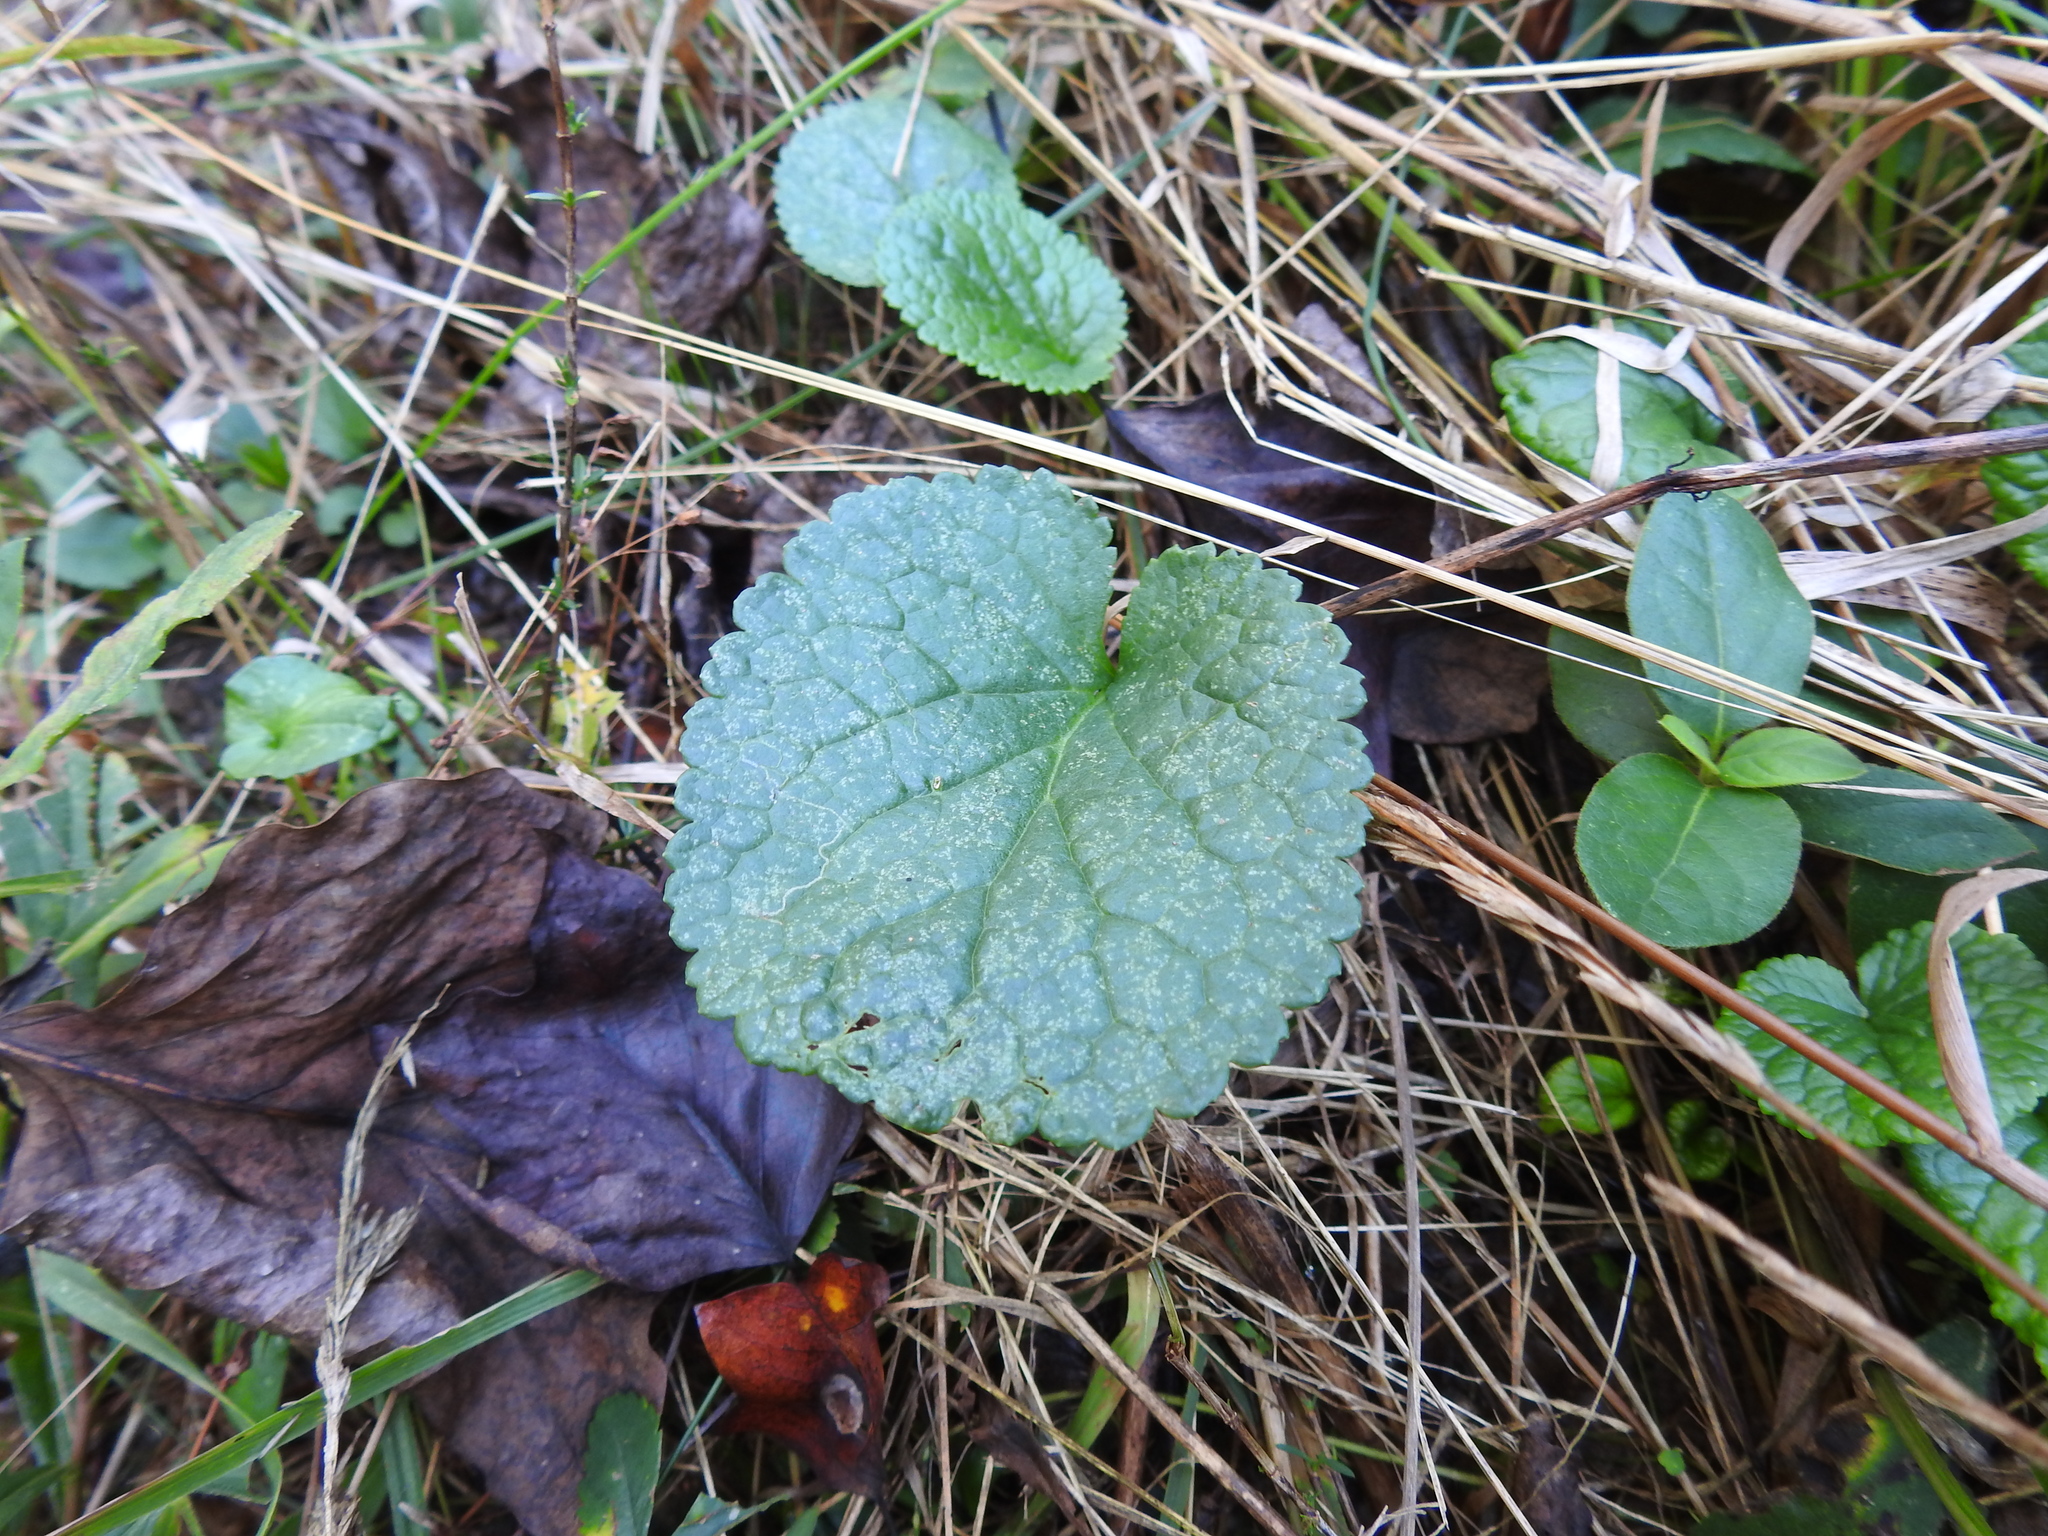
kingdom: Plantae
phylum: Tracheophyta
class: Magnoliopsida
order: Asterales
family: Asteraceae
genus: Packera
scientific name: Packera aurea
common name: Golden groundsel
